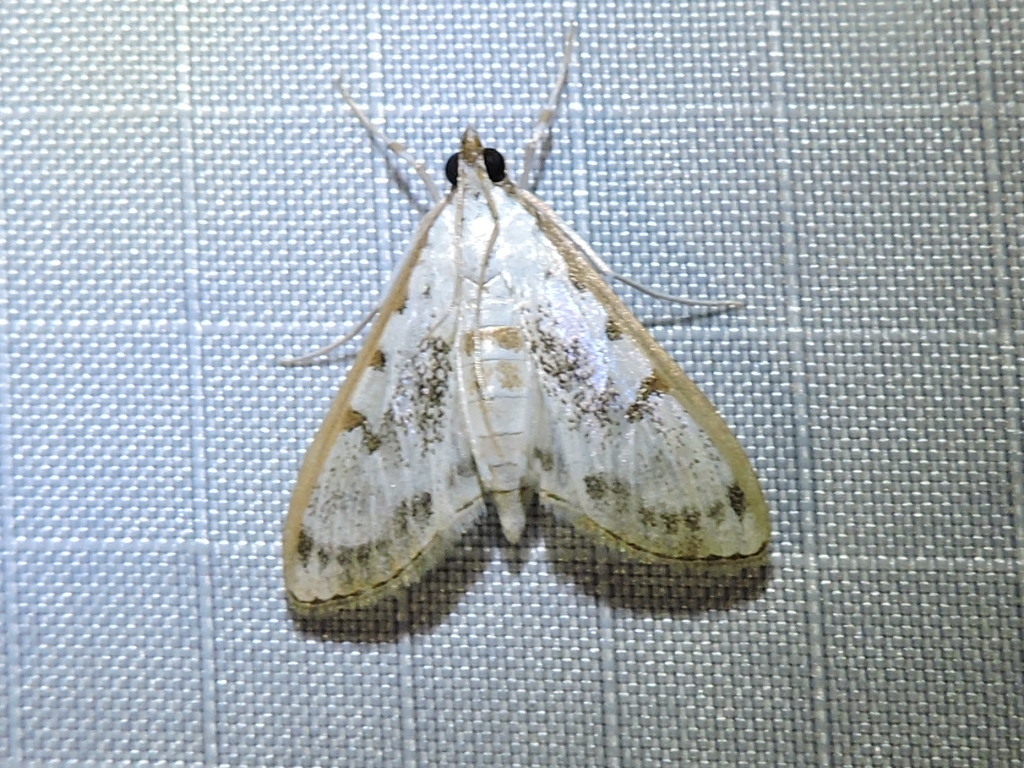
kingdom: Animalia
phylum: Arthropoda
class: Insecta
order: Lepidoptera
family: Crambidae
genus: Palpita
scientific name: Palpita gracilalis
